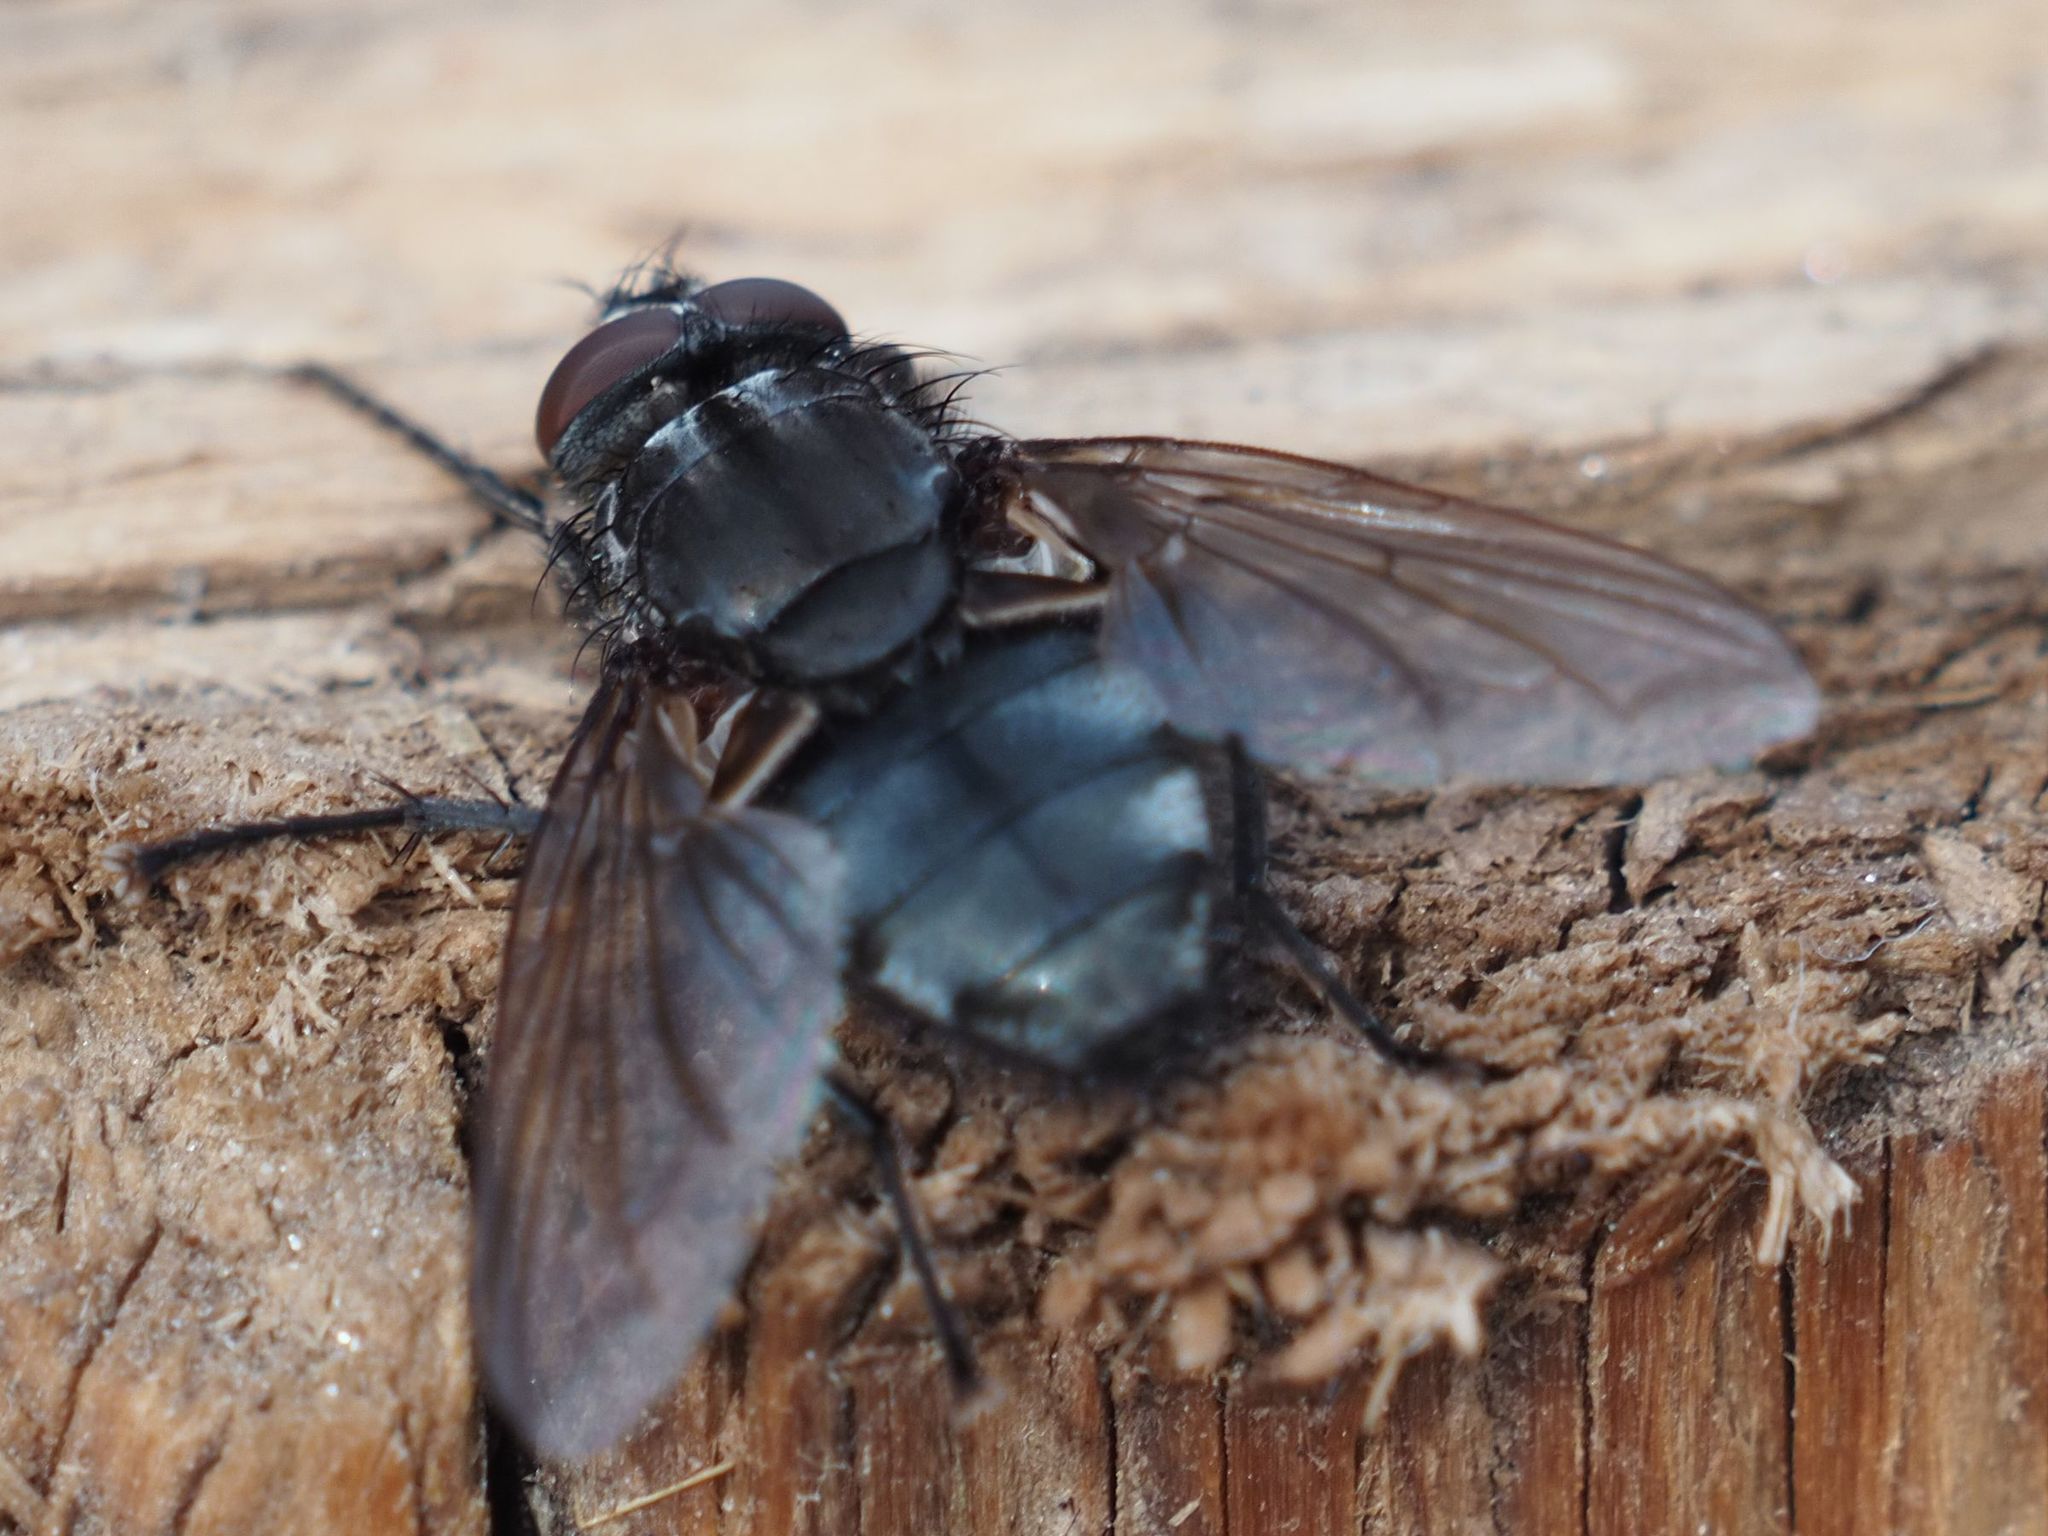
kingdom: Animalia
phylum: Arthropoda
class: Insecta
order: Diptera
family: Polleniidae
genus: Pollenia
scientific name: Pollenia vagabunda
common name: Vagabund cluster fly
